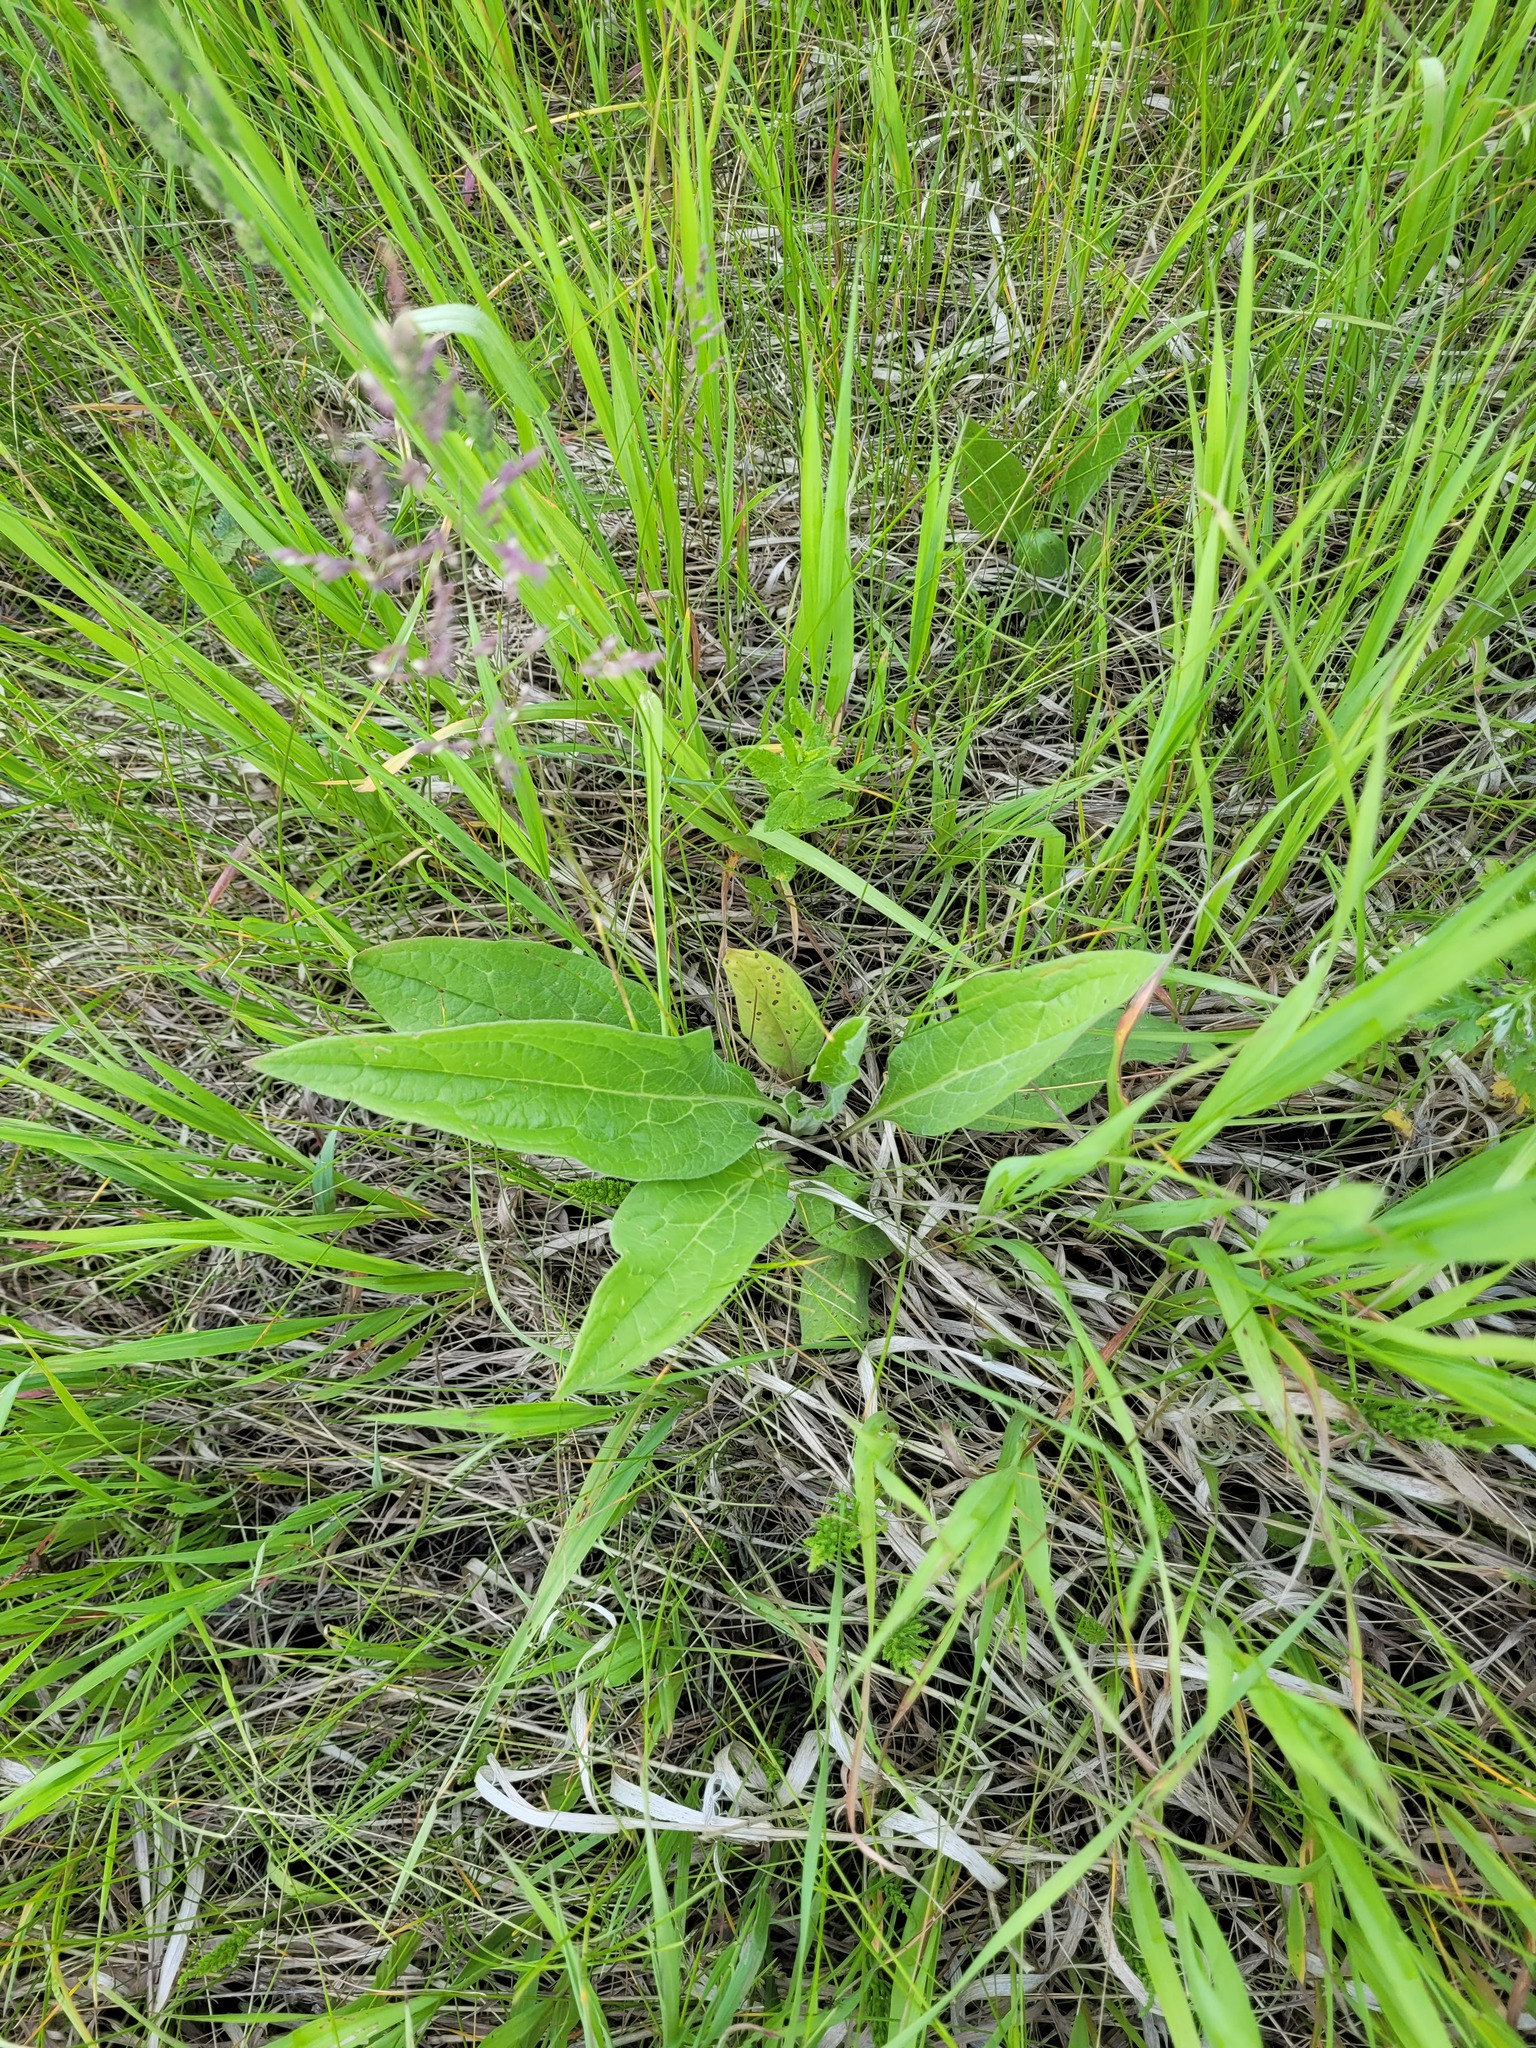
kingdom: Plantae
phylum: Tracheophyta
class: Magnoliopsida
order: Boraginales
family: Boraginaceae
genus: Cynoglossum
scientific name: Cynoglossum officinale
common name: Hound's-tongue
